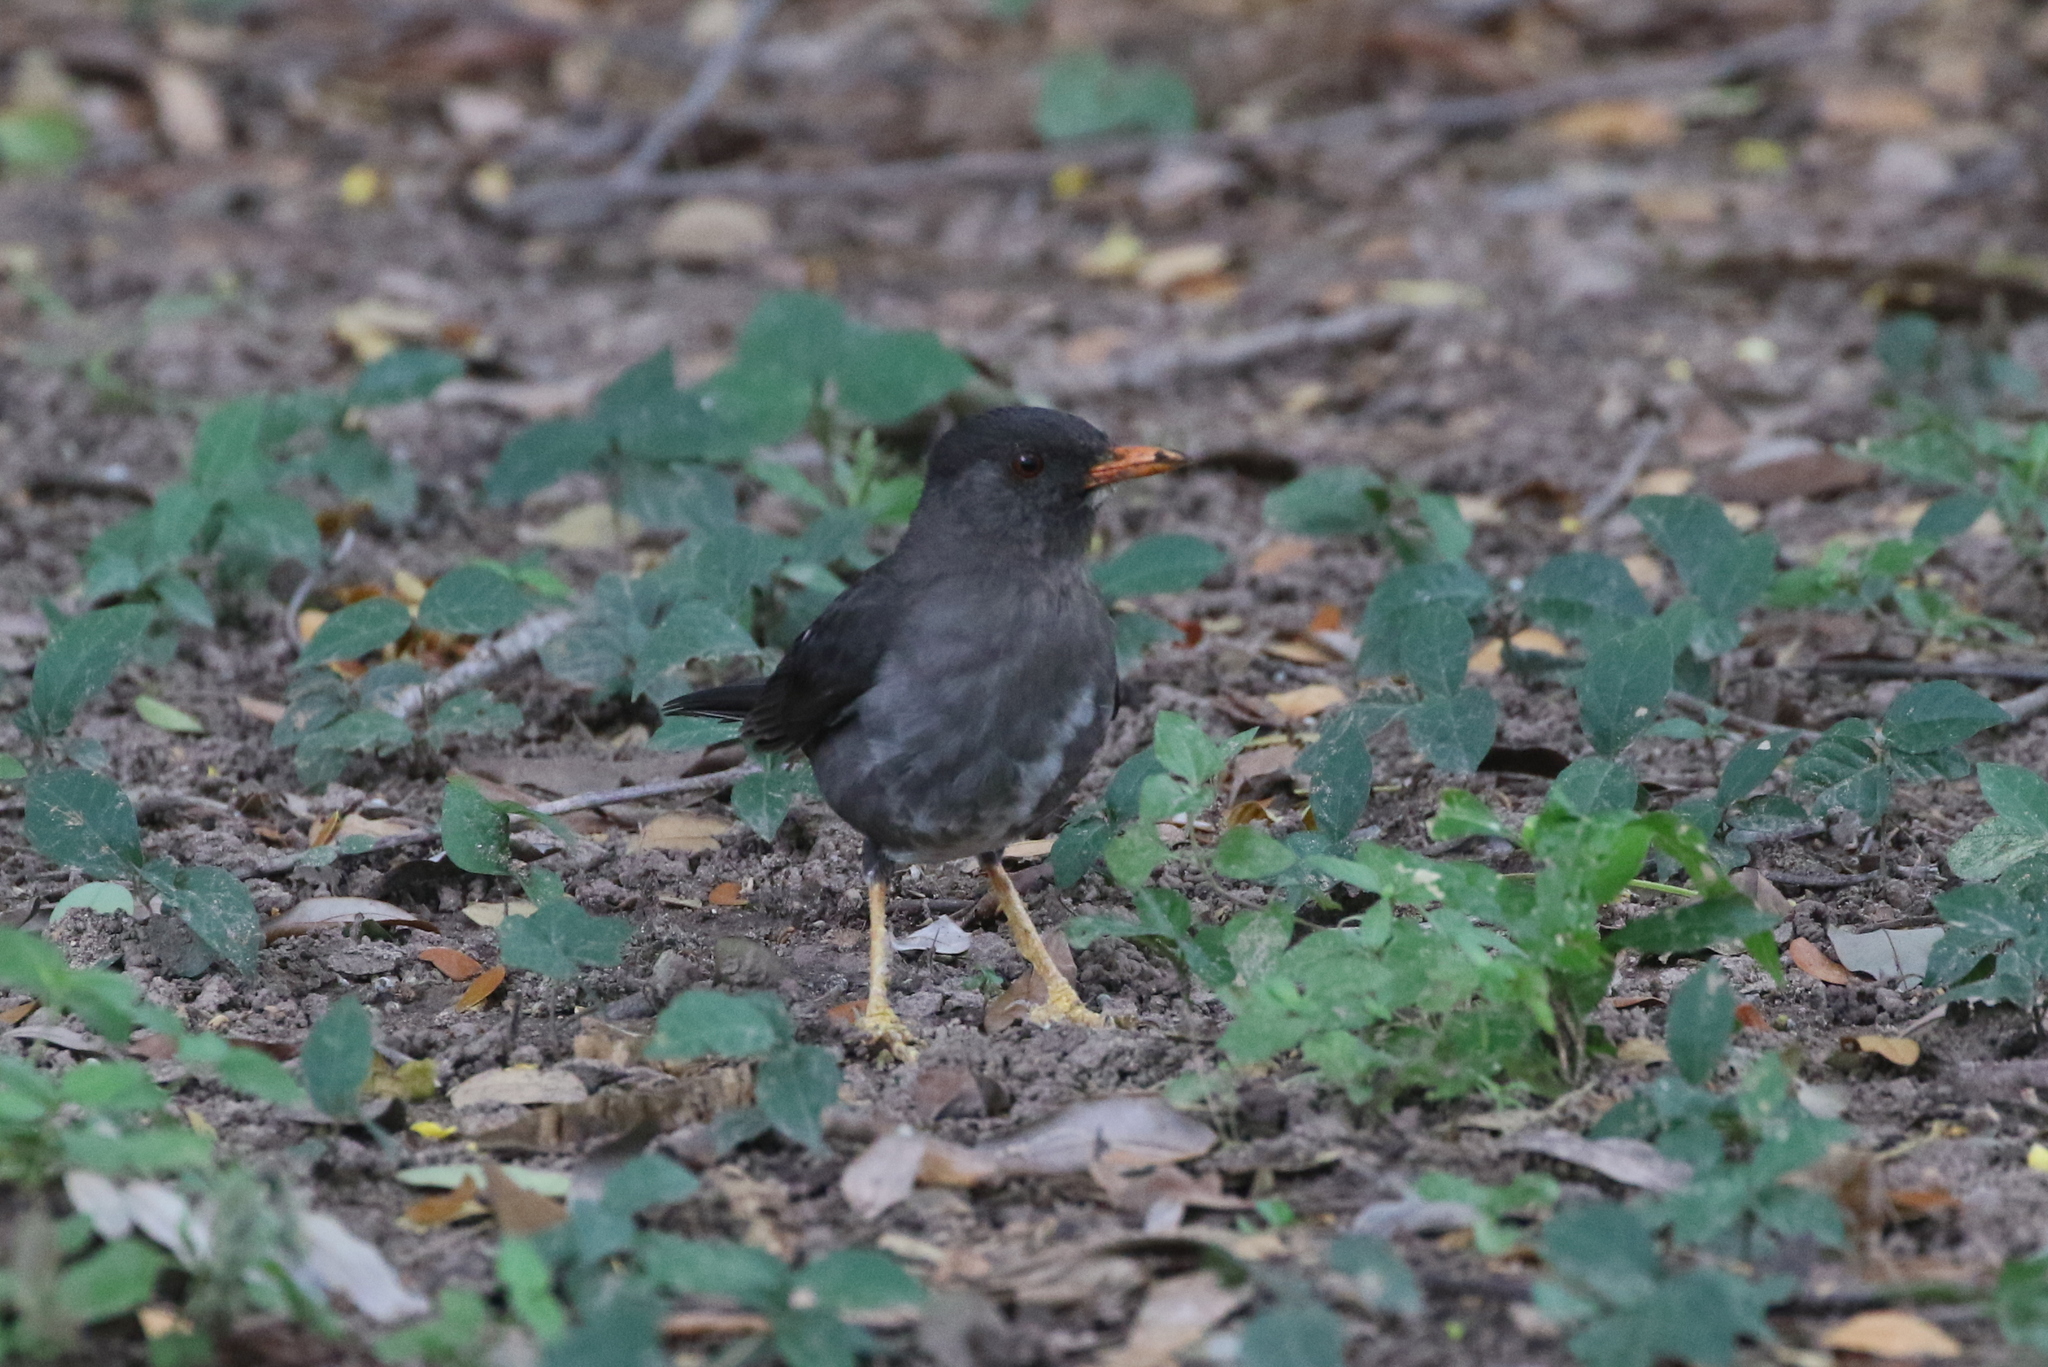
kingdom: Animalia
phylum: Chordata
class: Aves
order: Passeriformes
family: Turdidae
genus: Turdus
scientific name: Turdus aurantius
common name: White-chinned thrush
